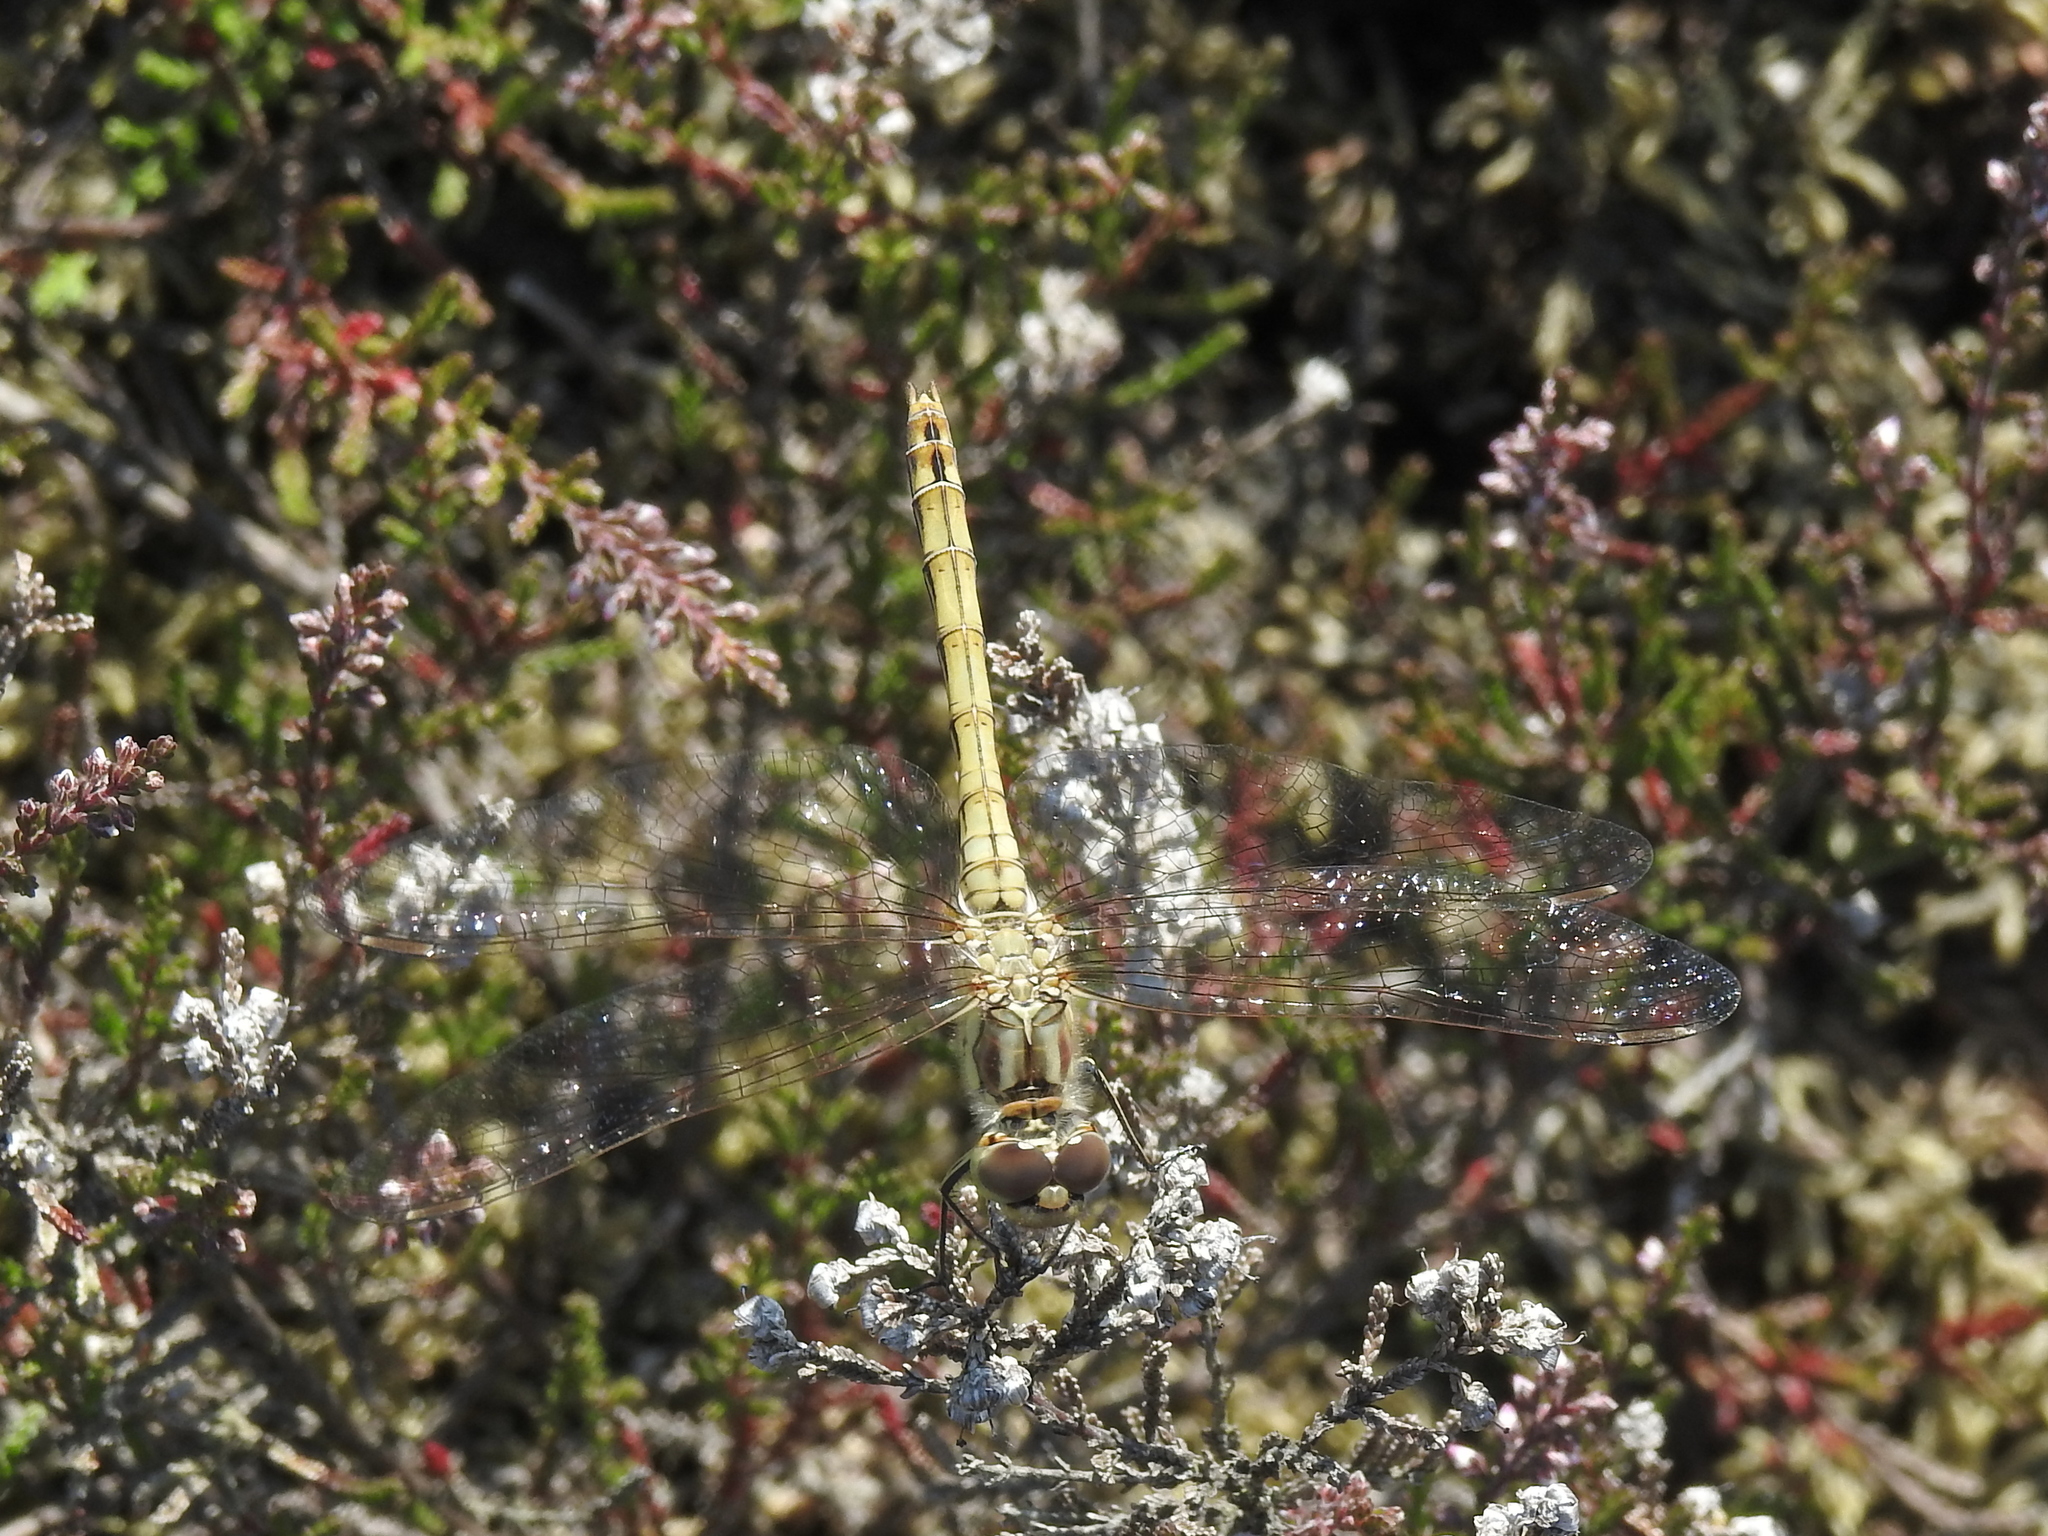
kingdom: Animalia
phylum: Arthropoda
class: Insecta
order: Odonata
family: Libellulidae
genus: Sympetrum
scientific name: Sympetrum vulgatum
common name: Vagrant darter
